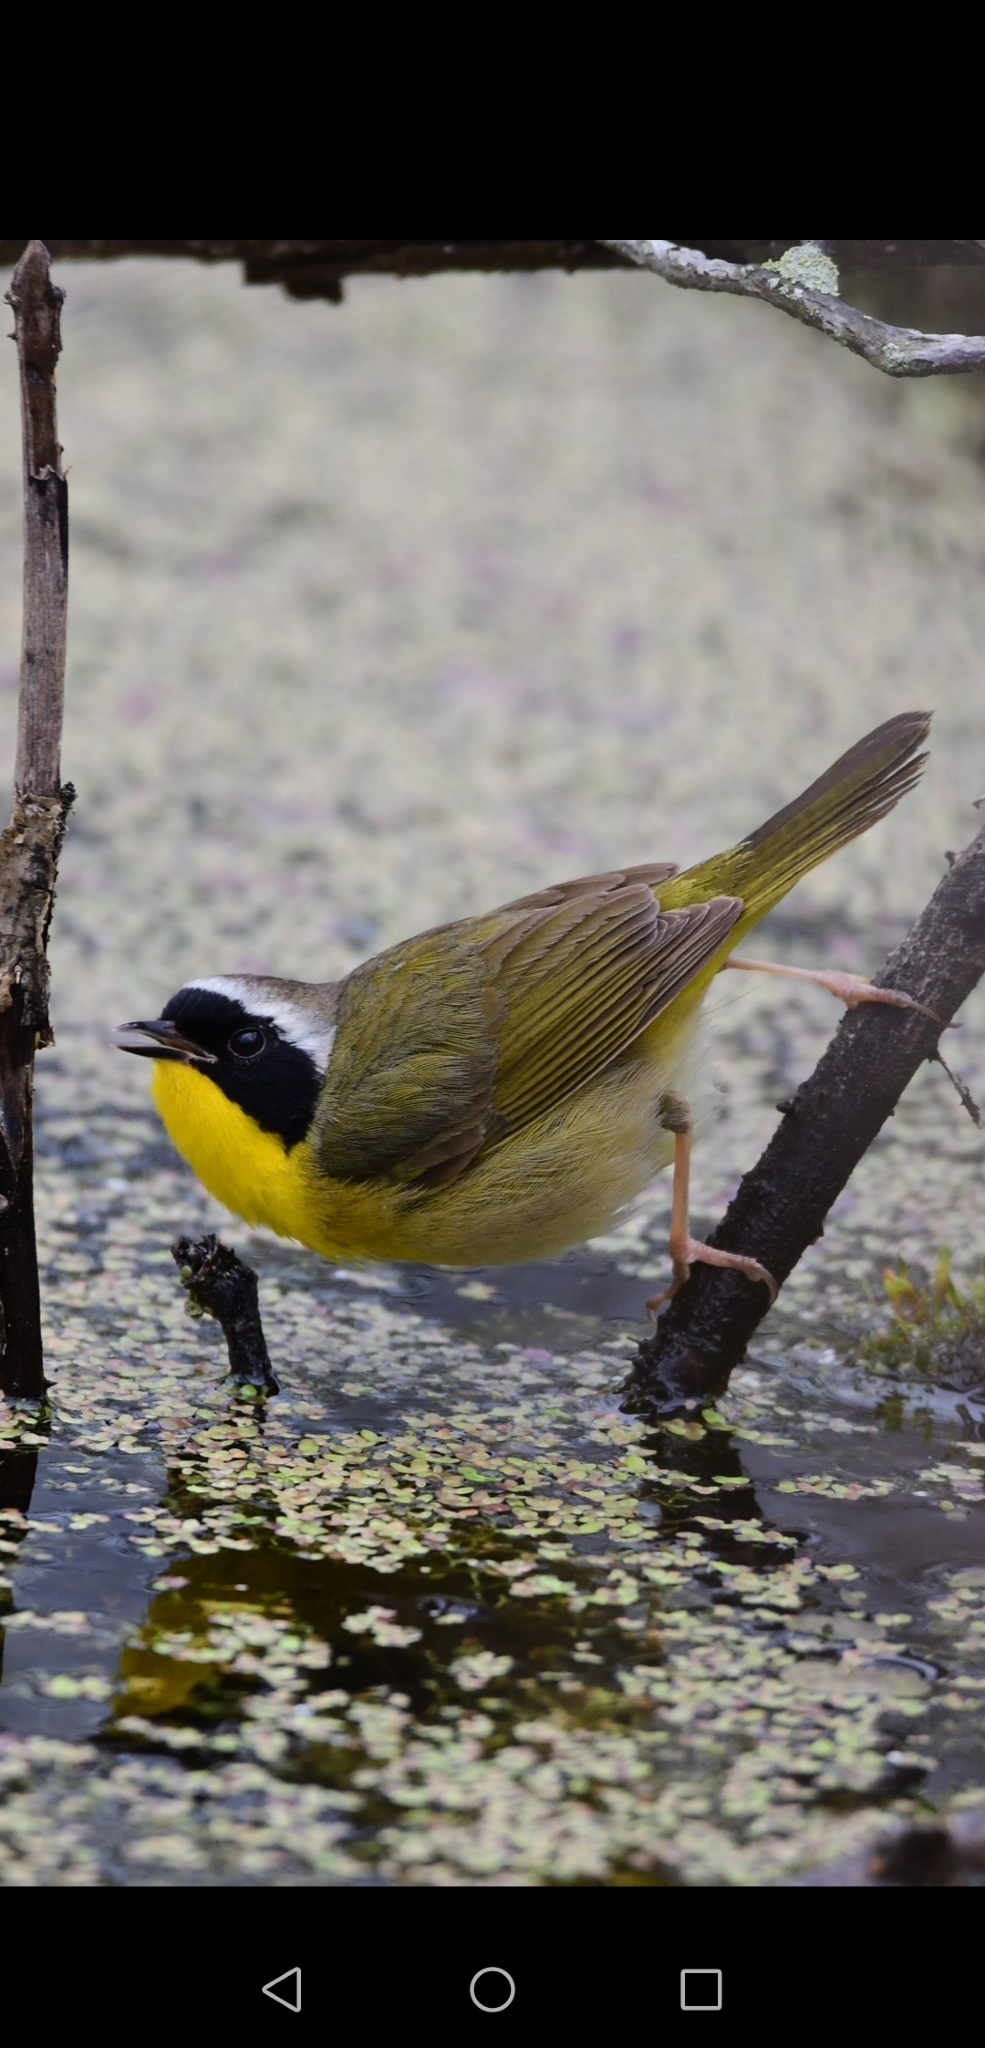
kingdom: Animalia
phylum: Chordata
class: Aves
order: Passeriformes
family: Parulidae
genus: Geothlypis
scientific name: Geothlypis trichas
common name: Common yellowthroat
